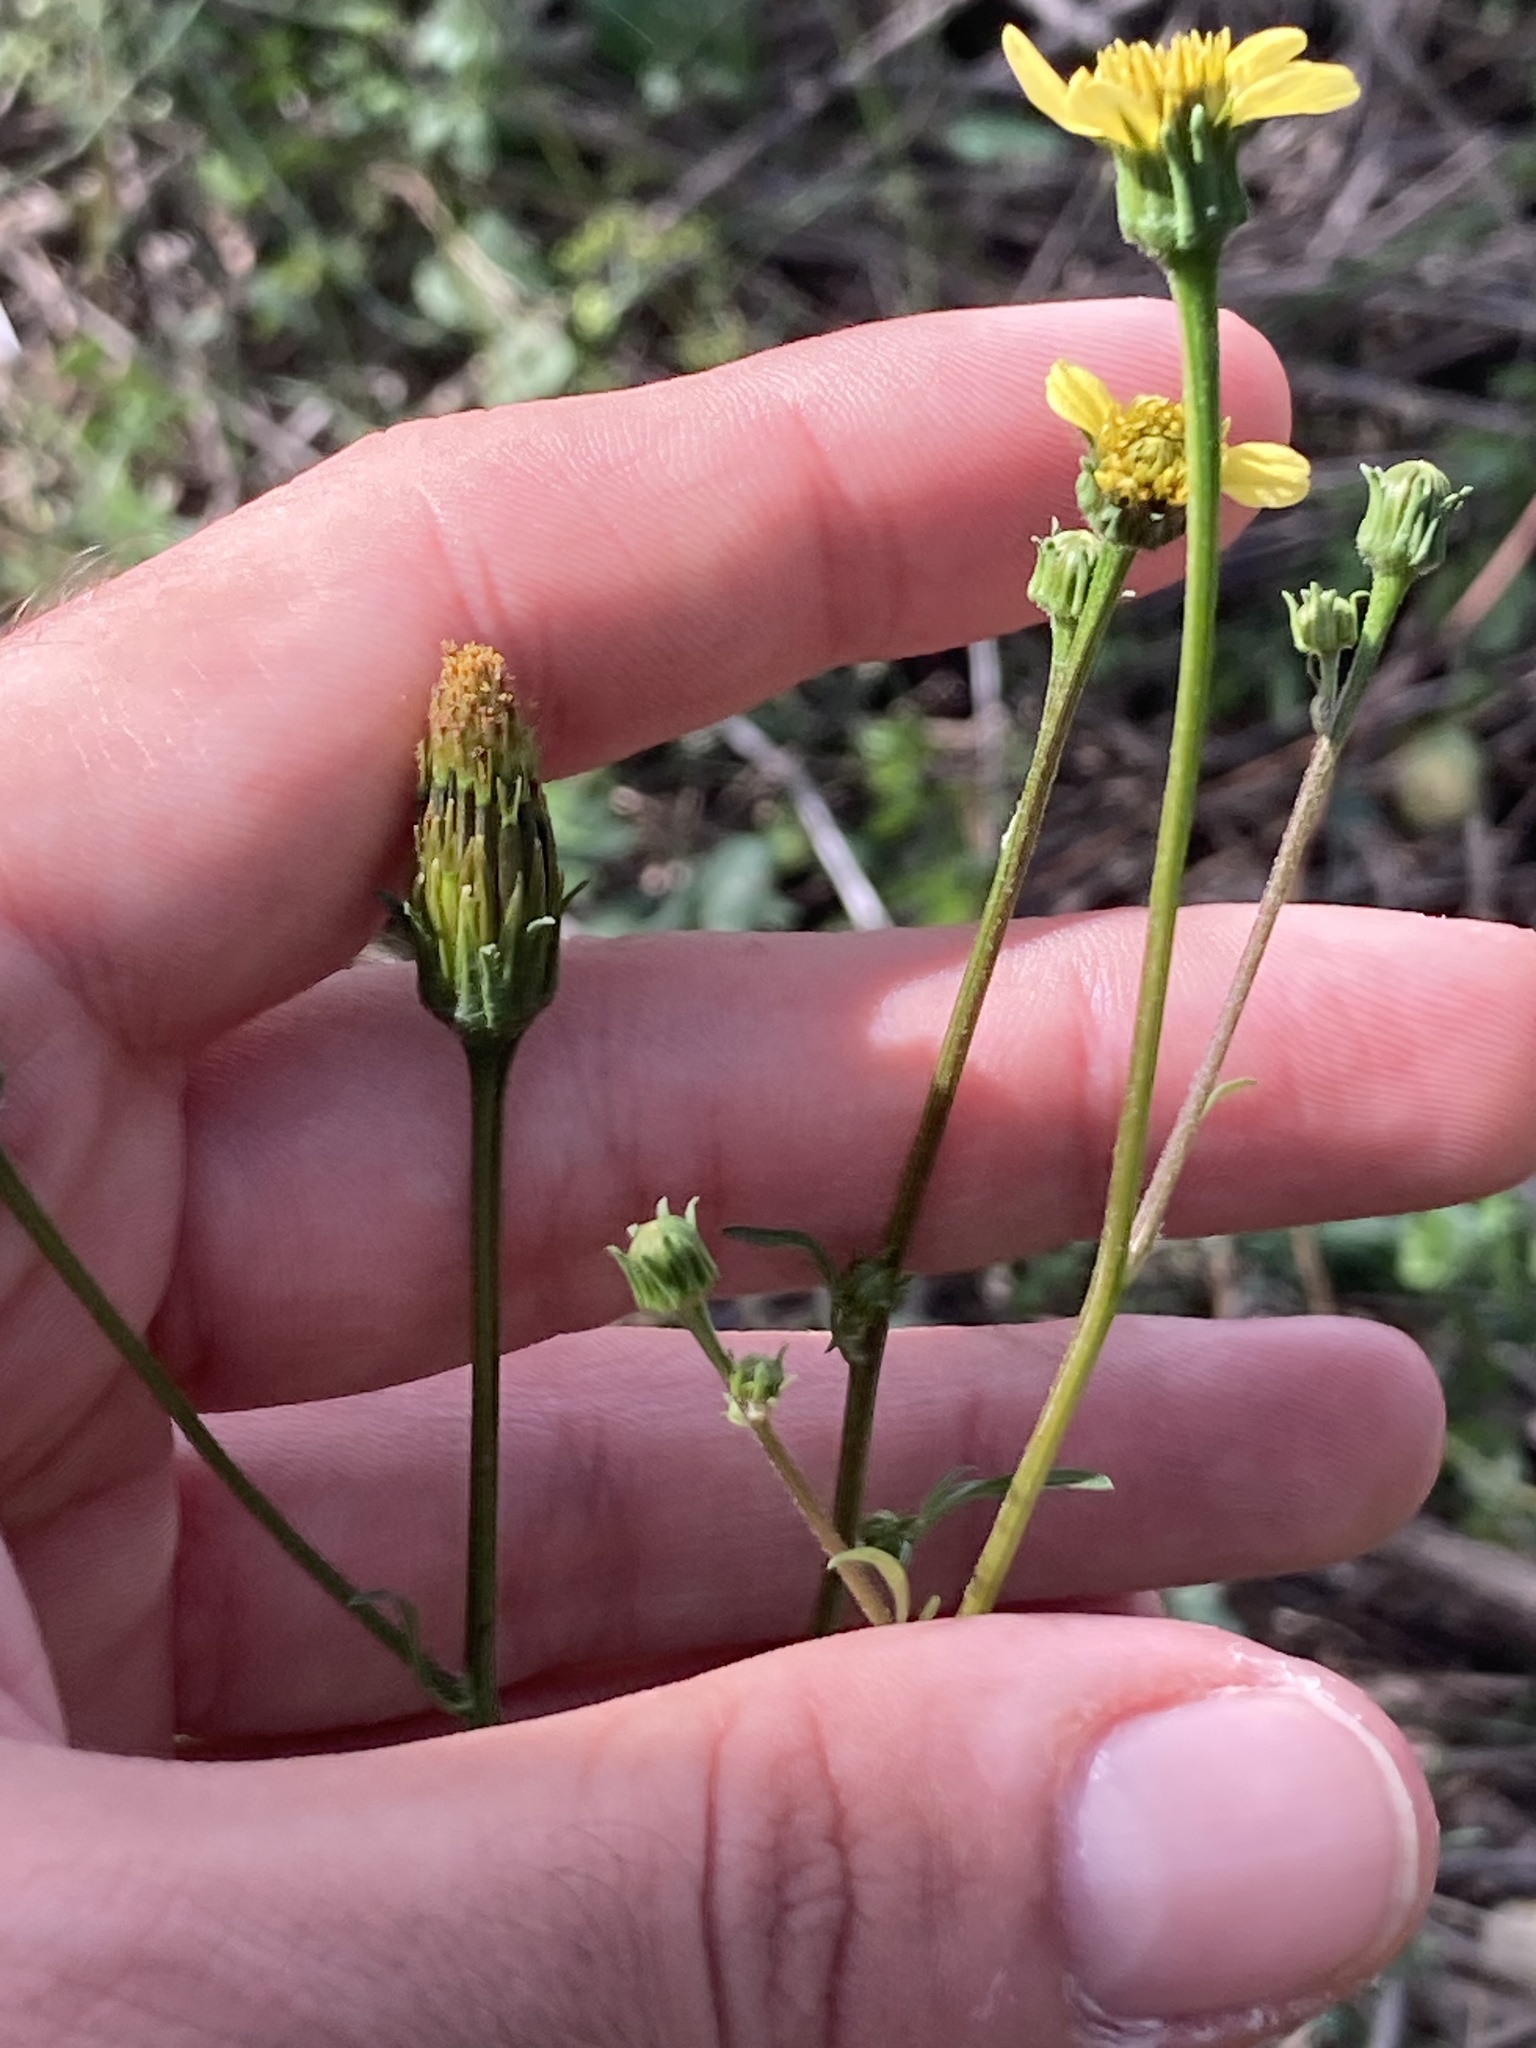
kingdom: Plantae
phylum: Tracheophyta
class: Magnoliopsida
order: Asterales
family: Asteraceae
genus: Bidens
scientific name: Bidens subalternans
